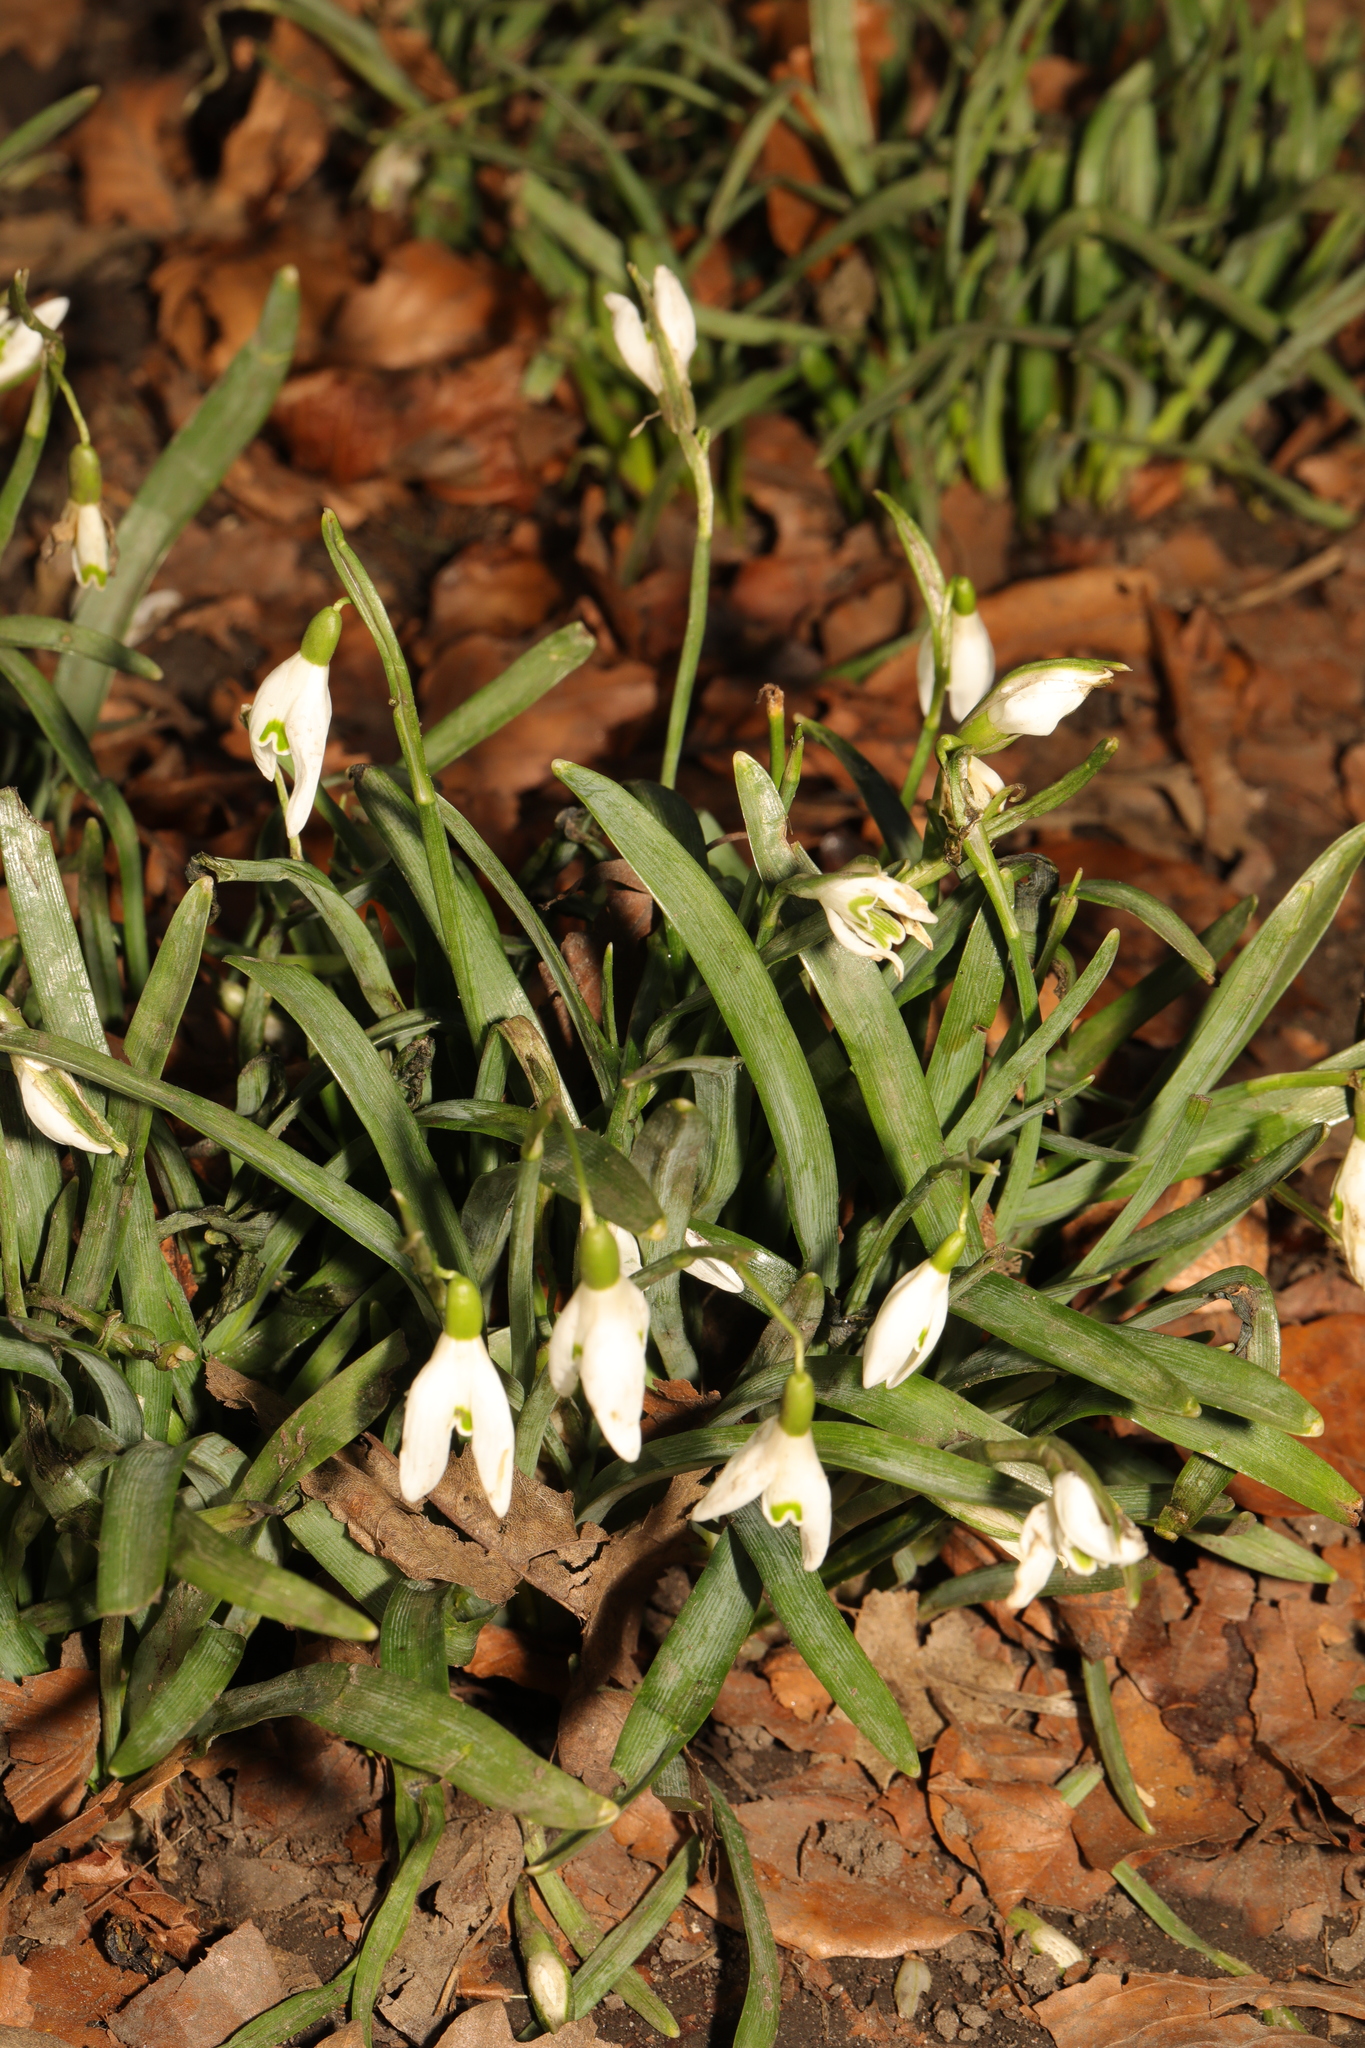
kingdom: Plantae
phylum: Tracheophyta
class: Liliopsida
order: Asparagales
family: Amaryllidaceae
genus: Galanthus
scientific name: Galanthus nivalis
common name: Snowdrop
